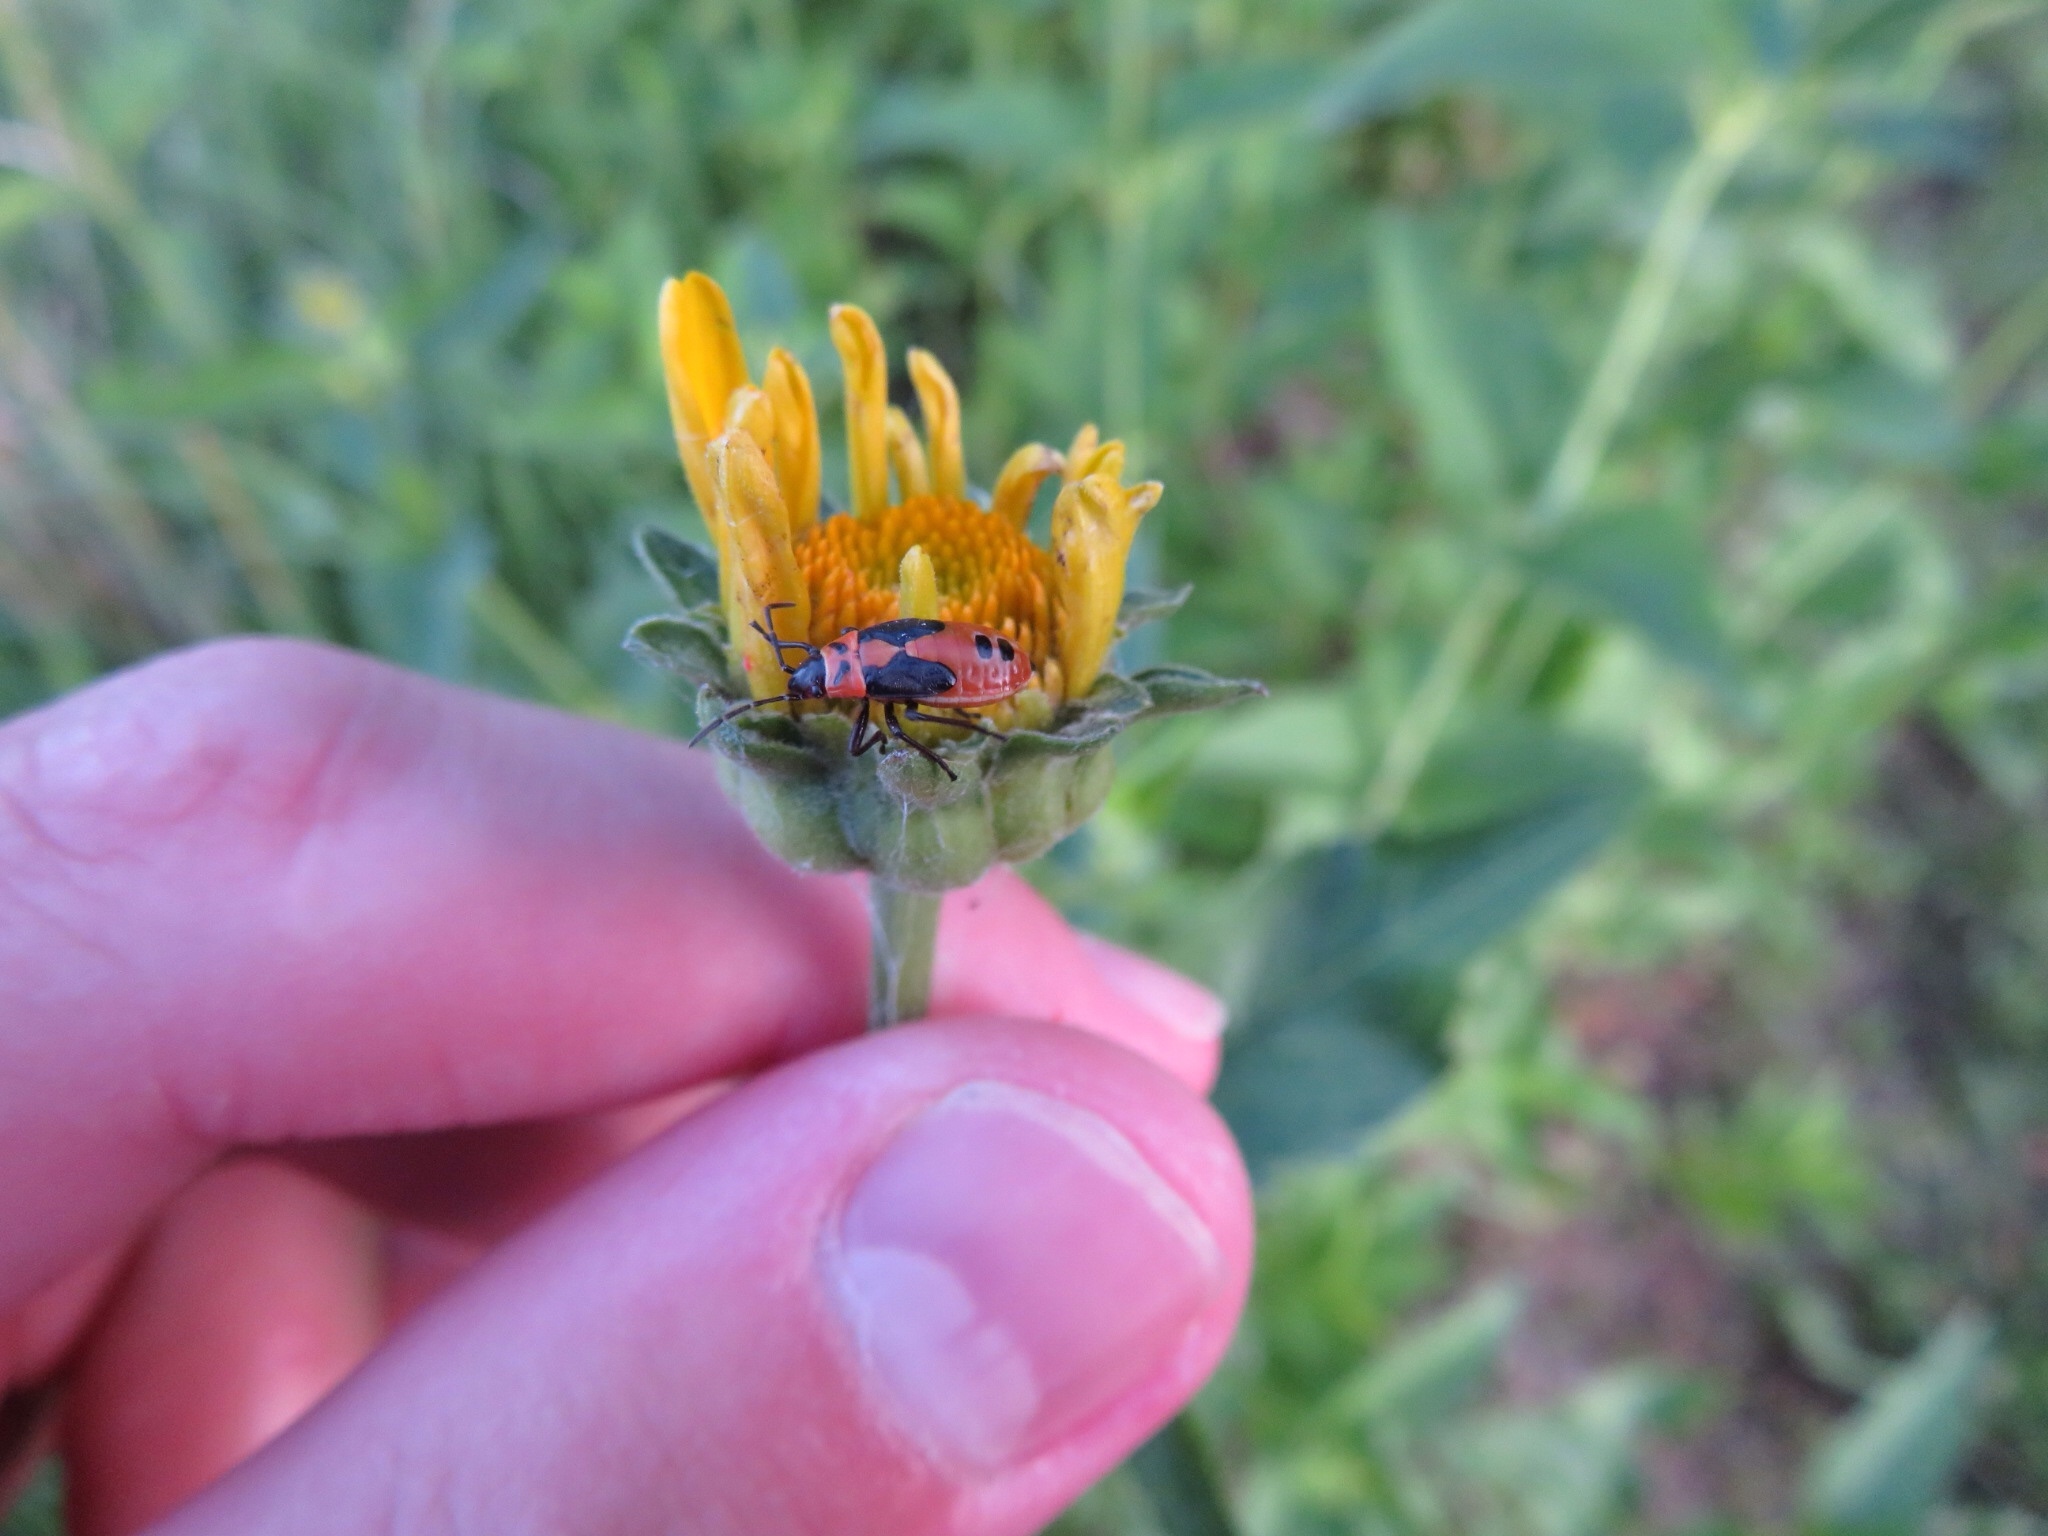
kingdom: Animalia
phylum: Arthropoda
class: Insecta
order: Hemiptera
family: Lygaeidae
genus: Lygaeus
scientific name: Lygaeus turcicus
